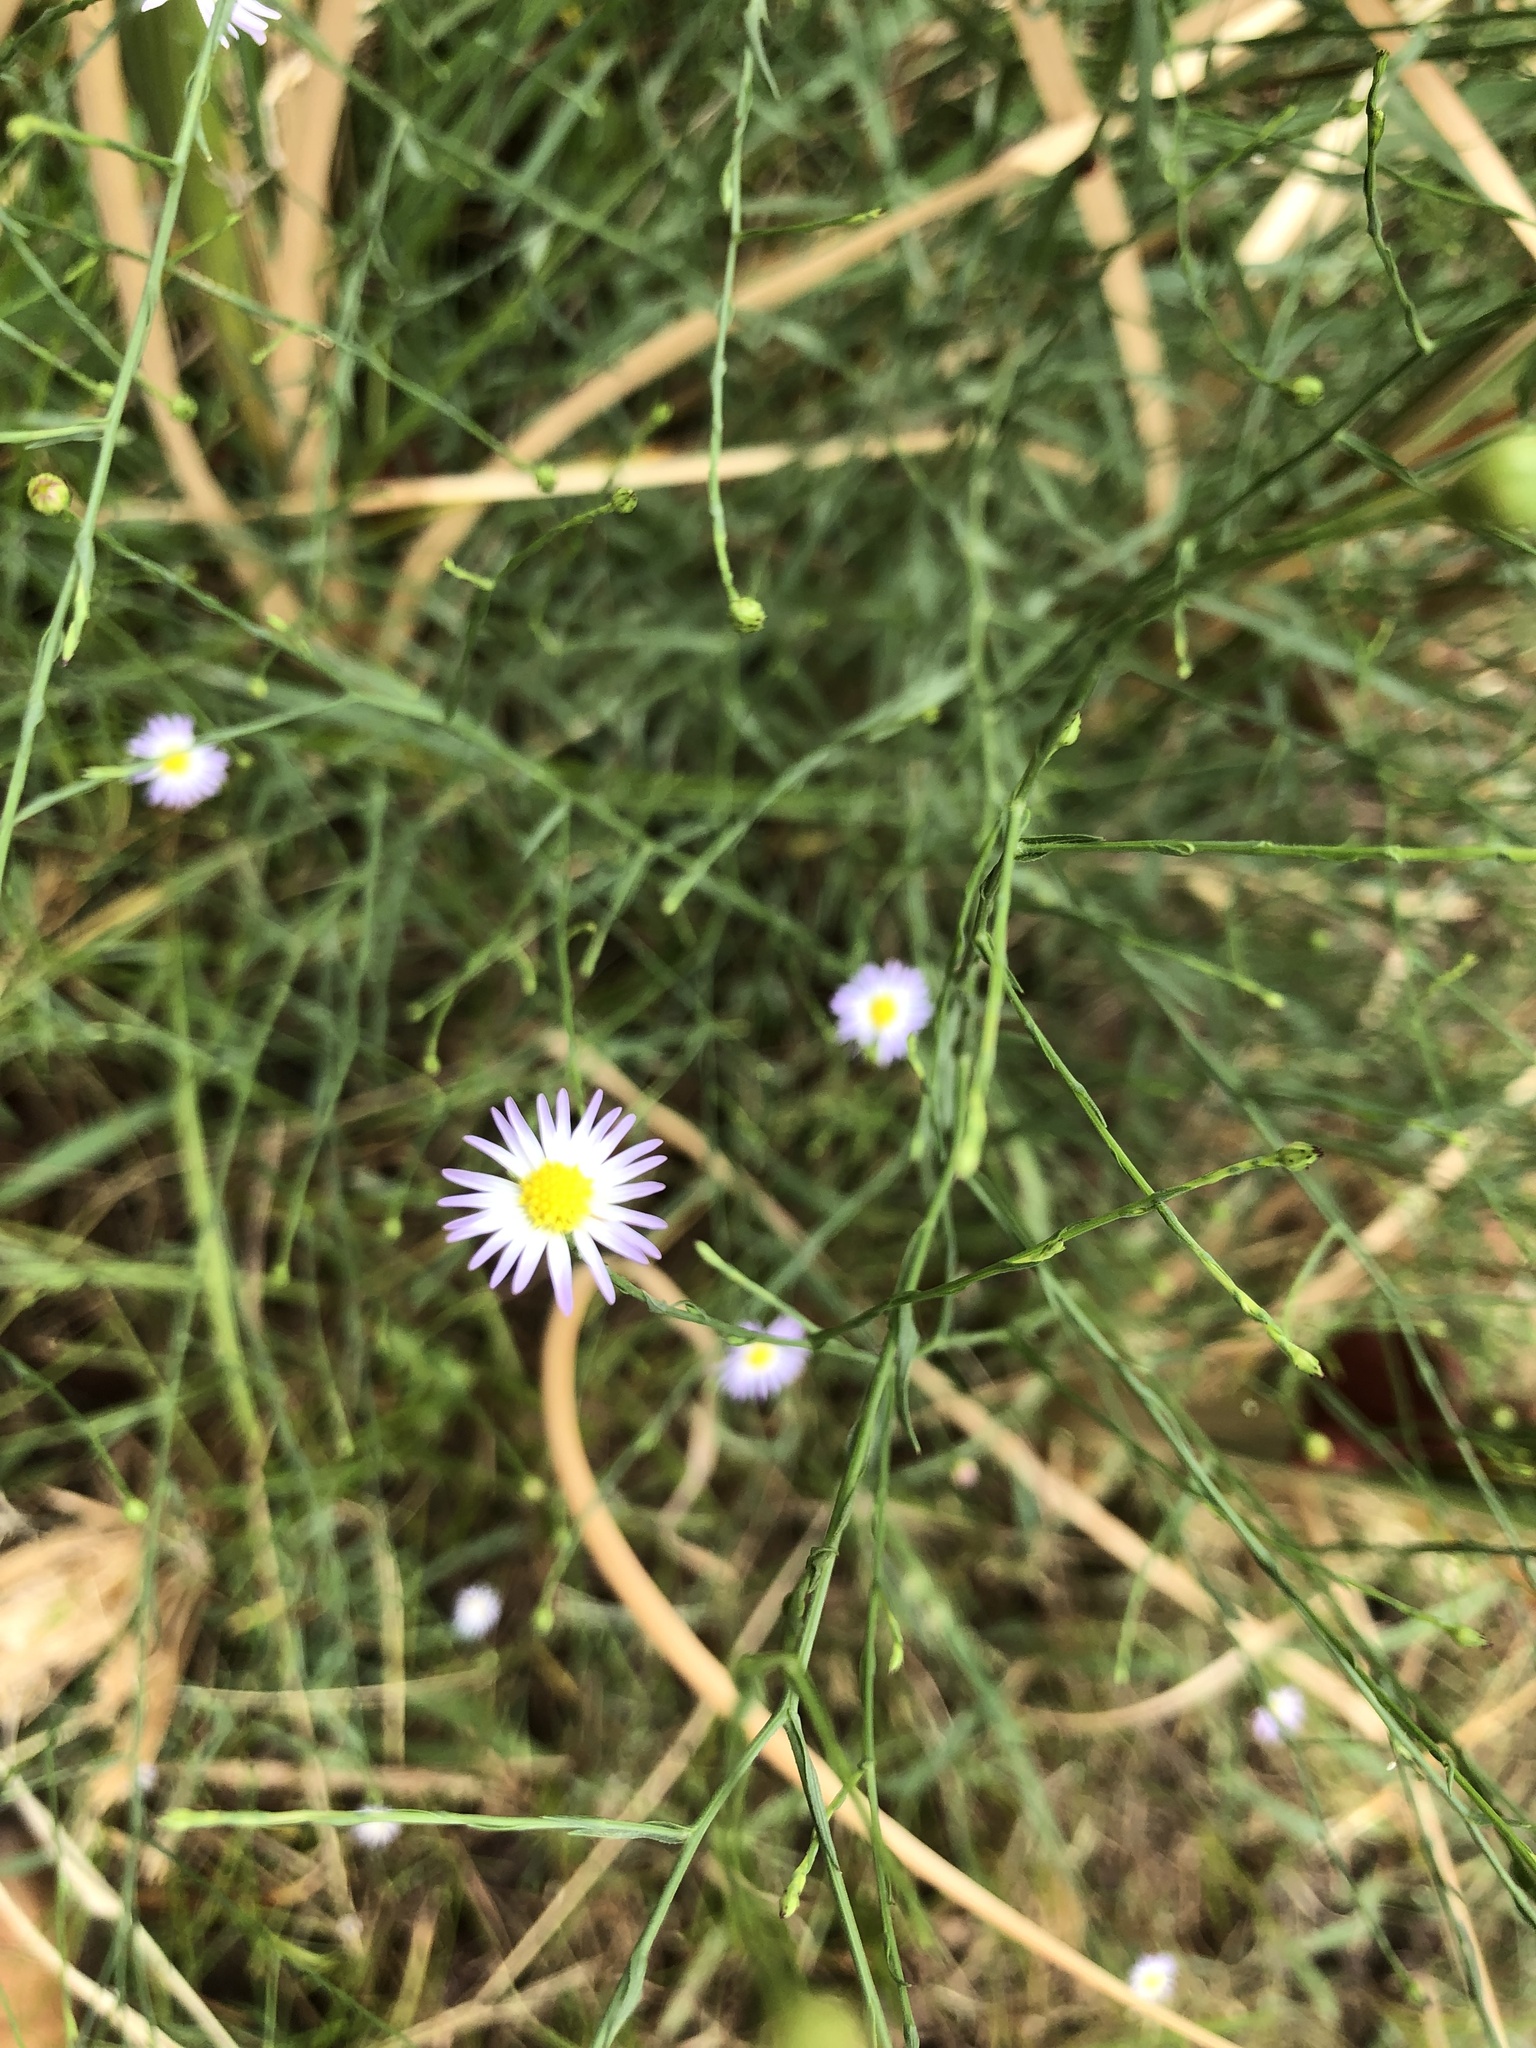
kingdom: Plantae
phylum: Tracheophyta
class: Magnoliopsida
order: Asterales
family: Asteraceae
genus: Symphyotrichum
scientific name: Symphyotrichum divaricatum
